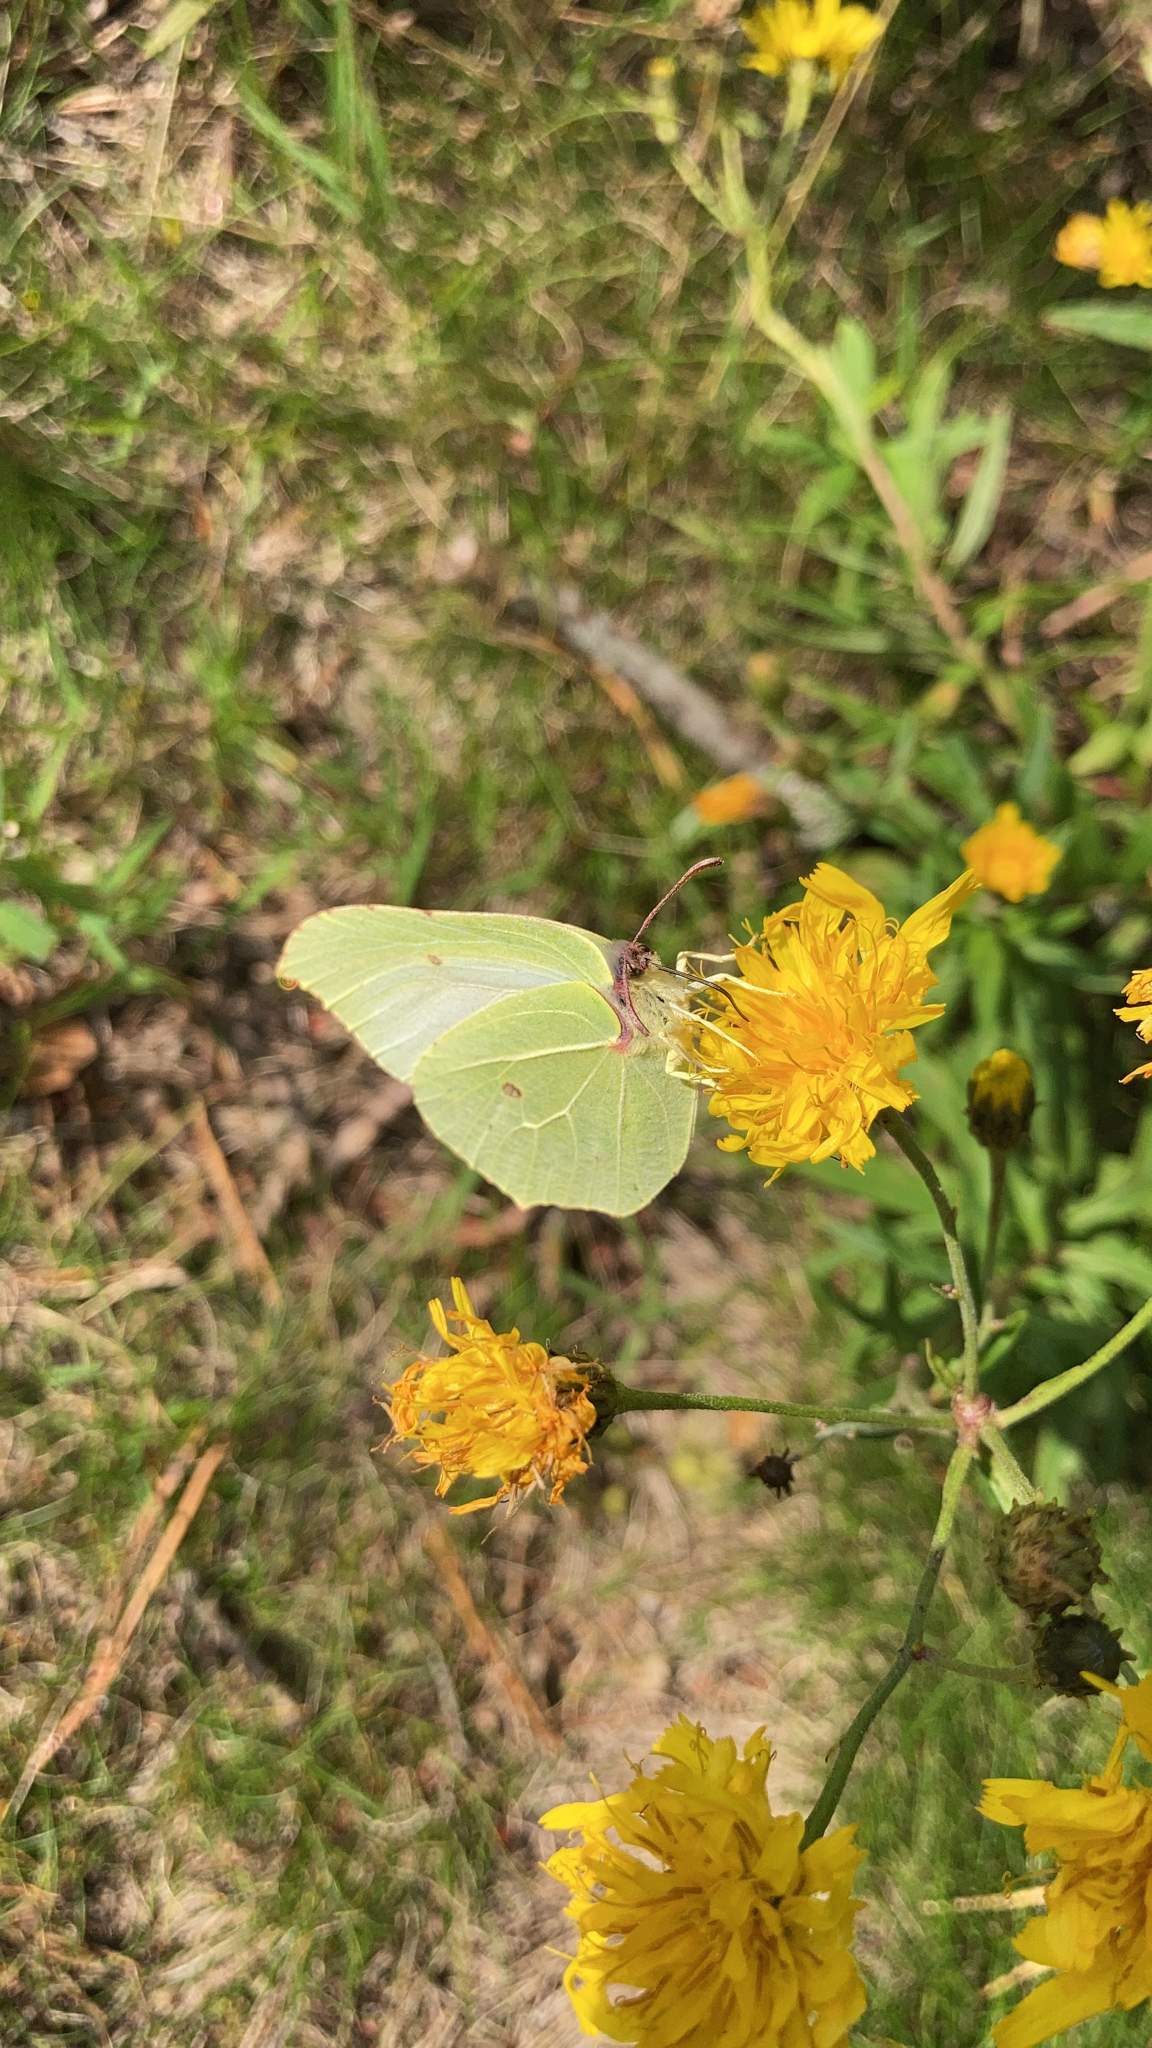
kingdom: Animalia
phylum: Arthropoda
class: Insecta
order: Lepidoptera
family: Pieridae
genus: Gonepteryx
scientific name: Gonepteryx rhamni
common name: Brimstone
